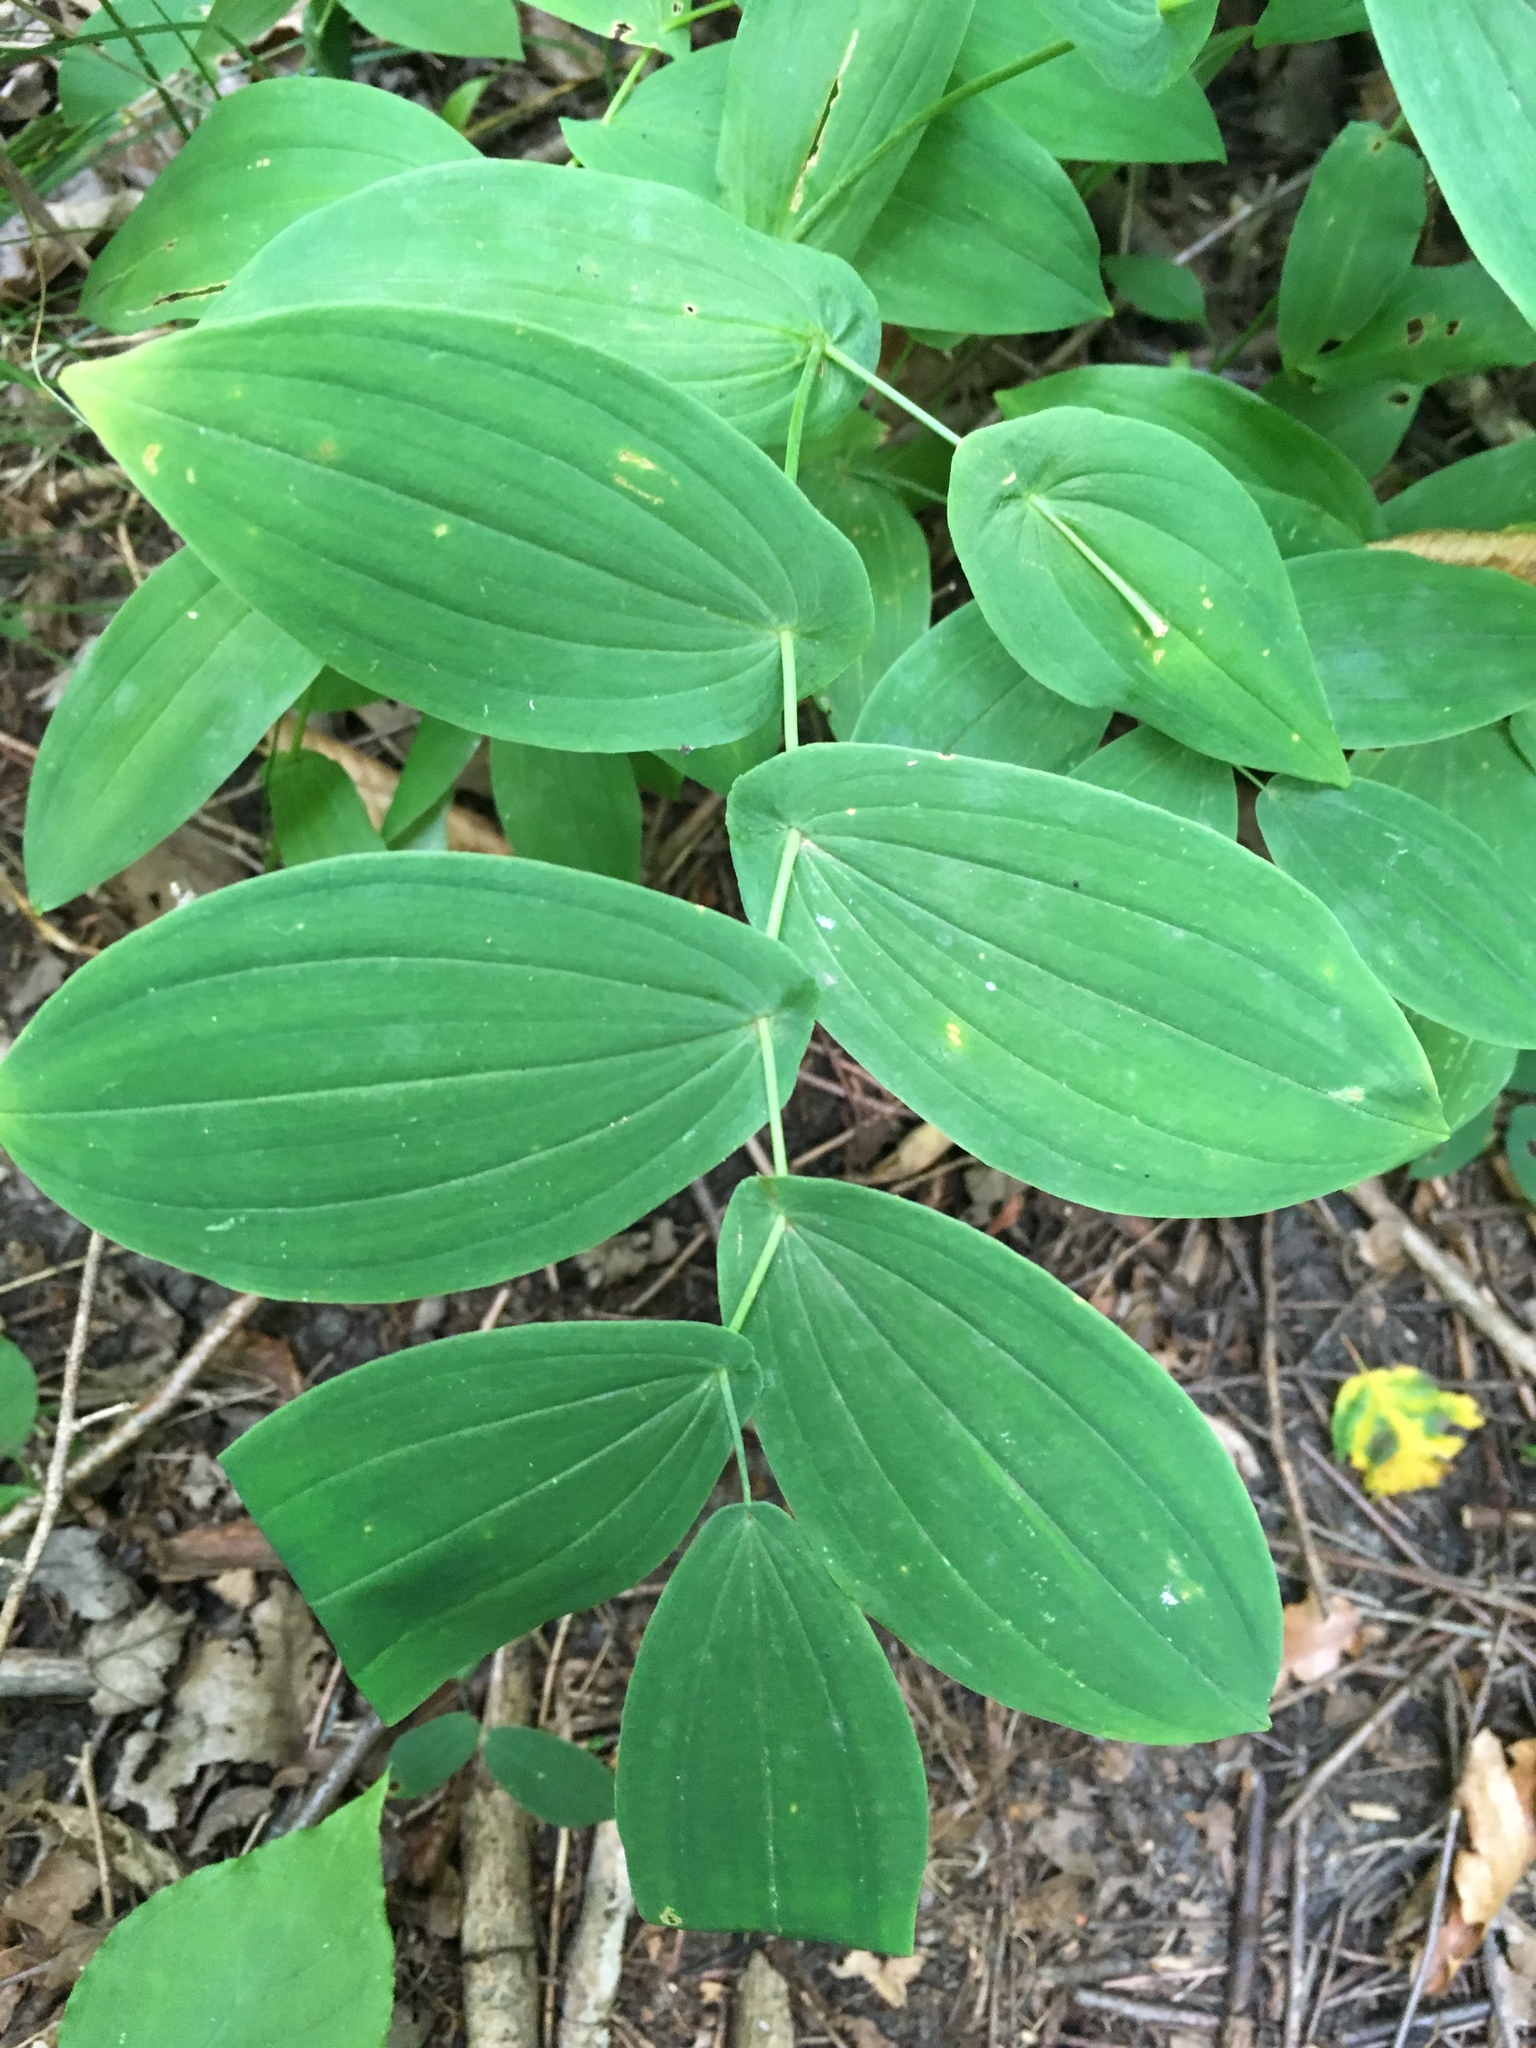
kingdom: Plantae
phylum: Tracheophyta
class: Liliopsida
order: Liliales
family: Colchicaceae
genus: Uvularia
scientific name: Uvularia grandiflora
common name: Bellwort
